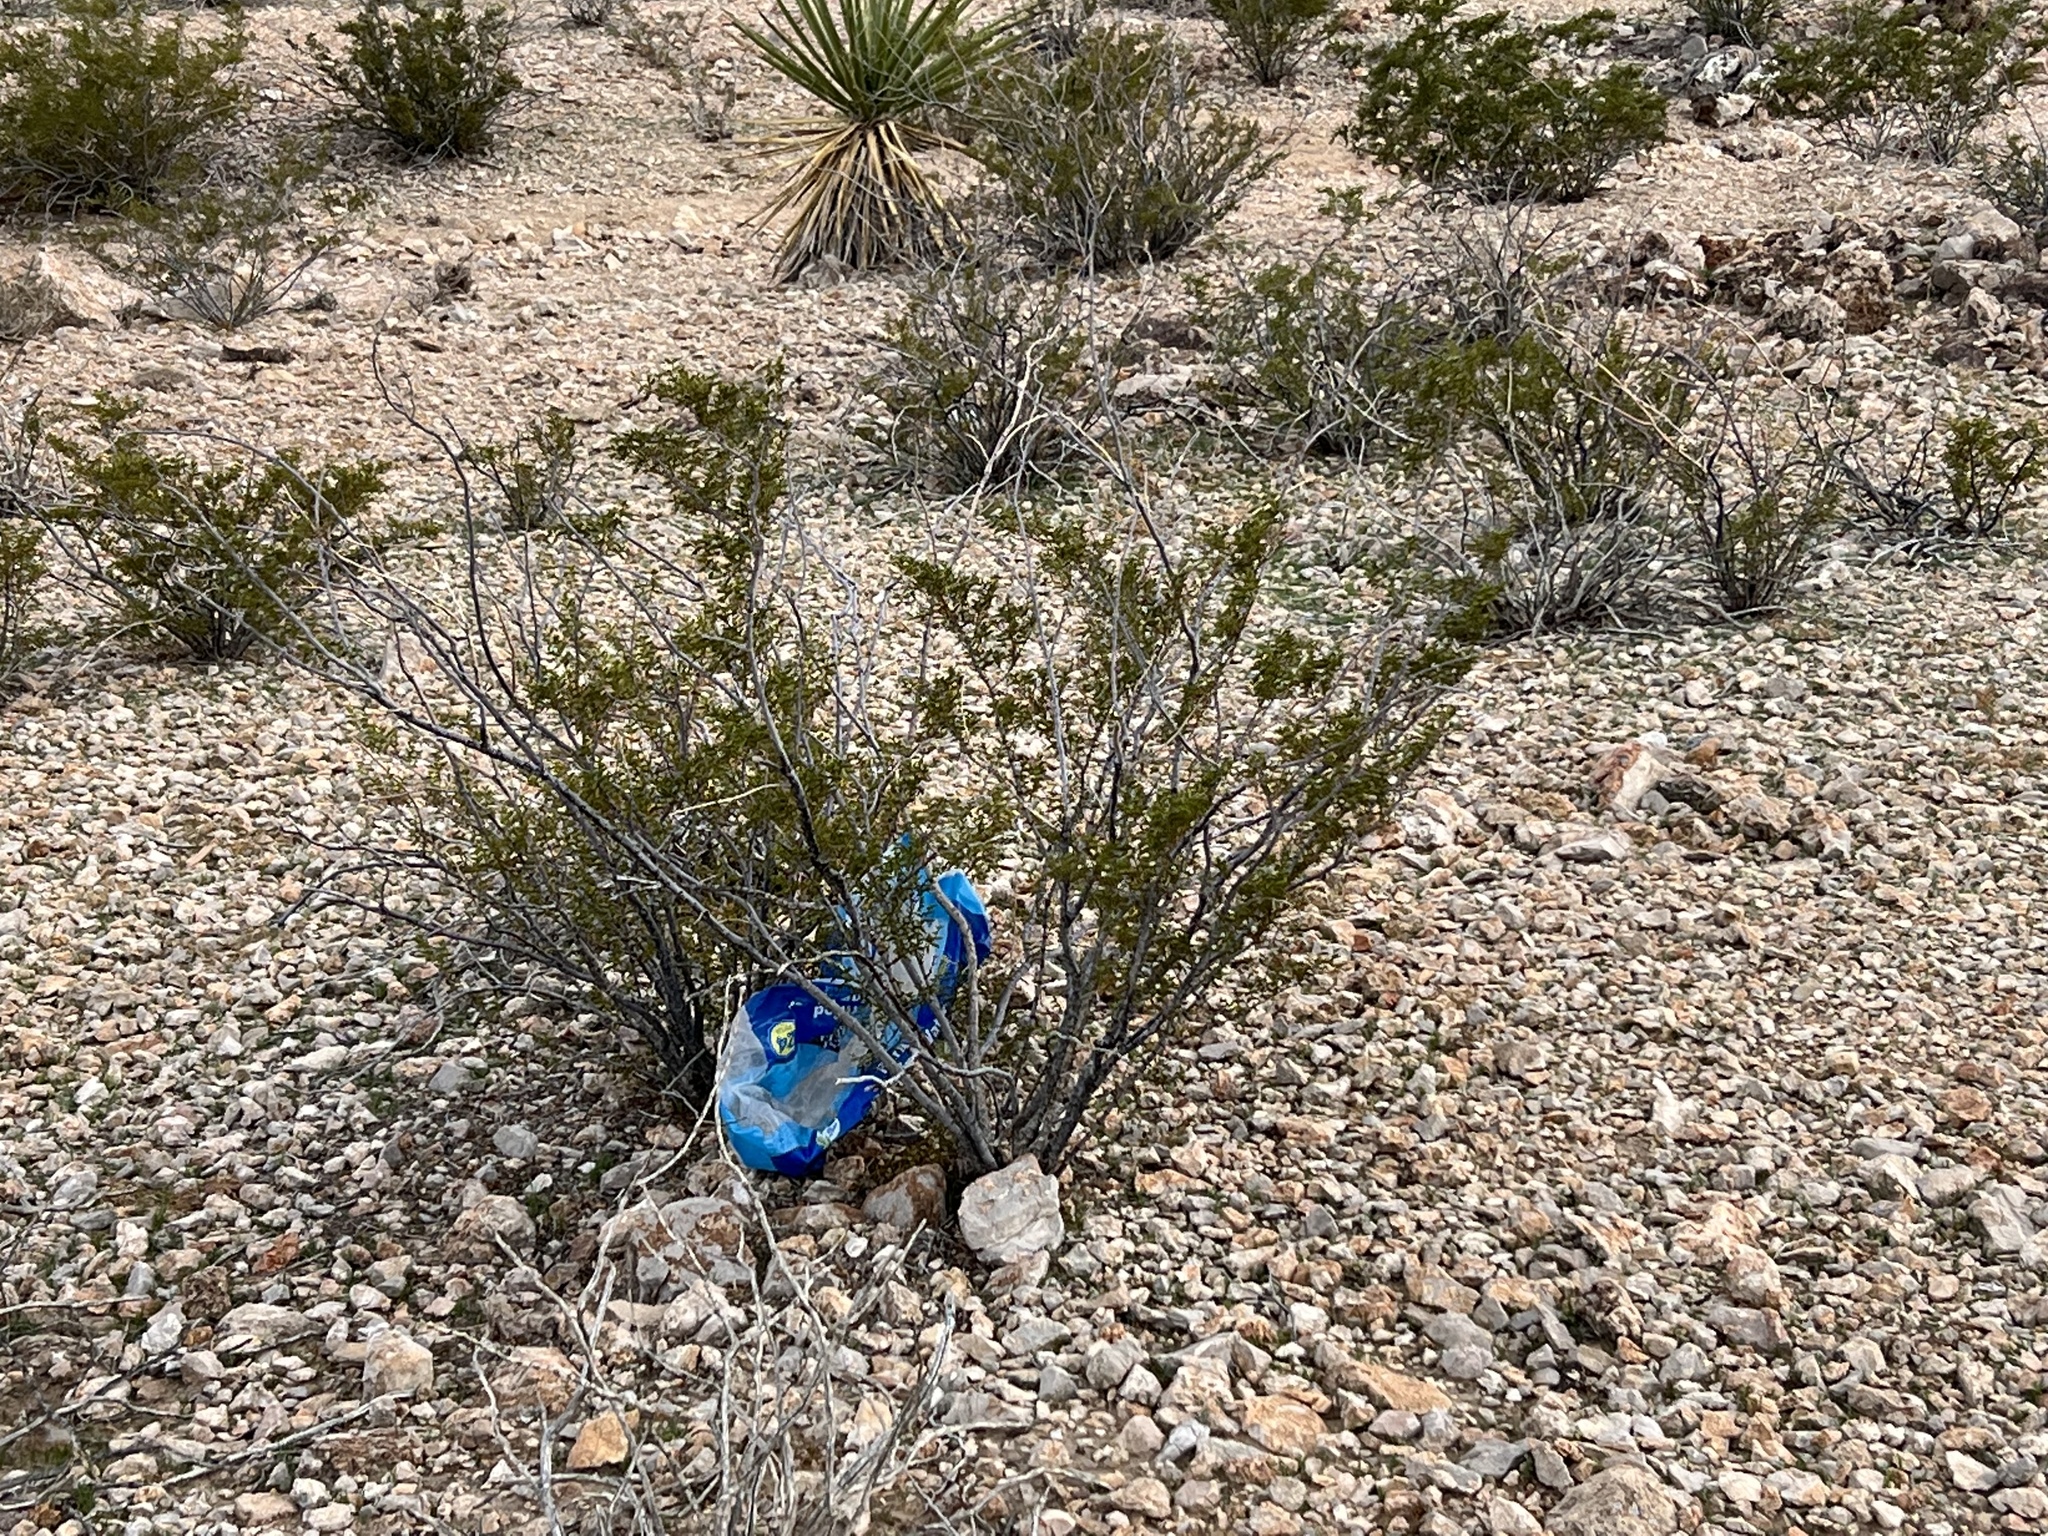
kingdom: Plantae
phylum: Tracheophyta
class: Magnoliopsida
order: Zygophyllales
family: Zygophyllaceae
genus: Larrea
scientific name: Larrea tridentata
